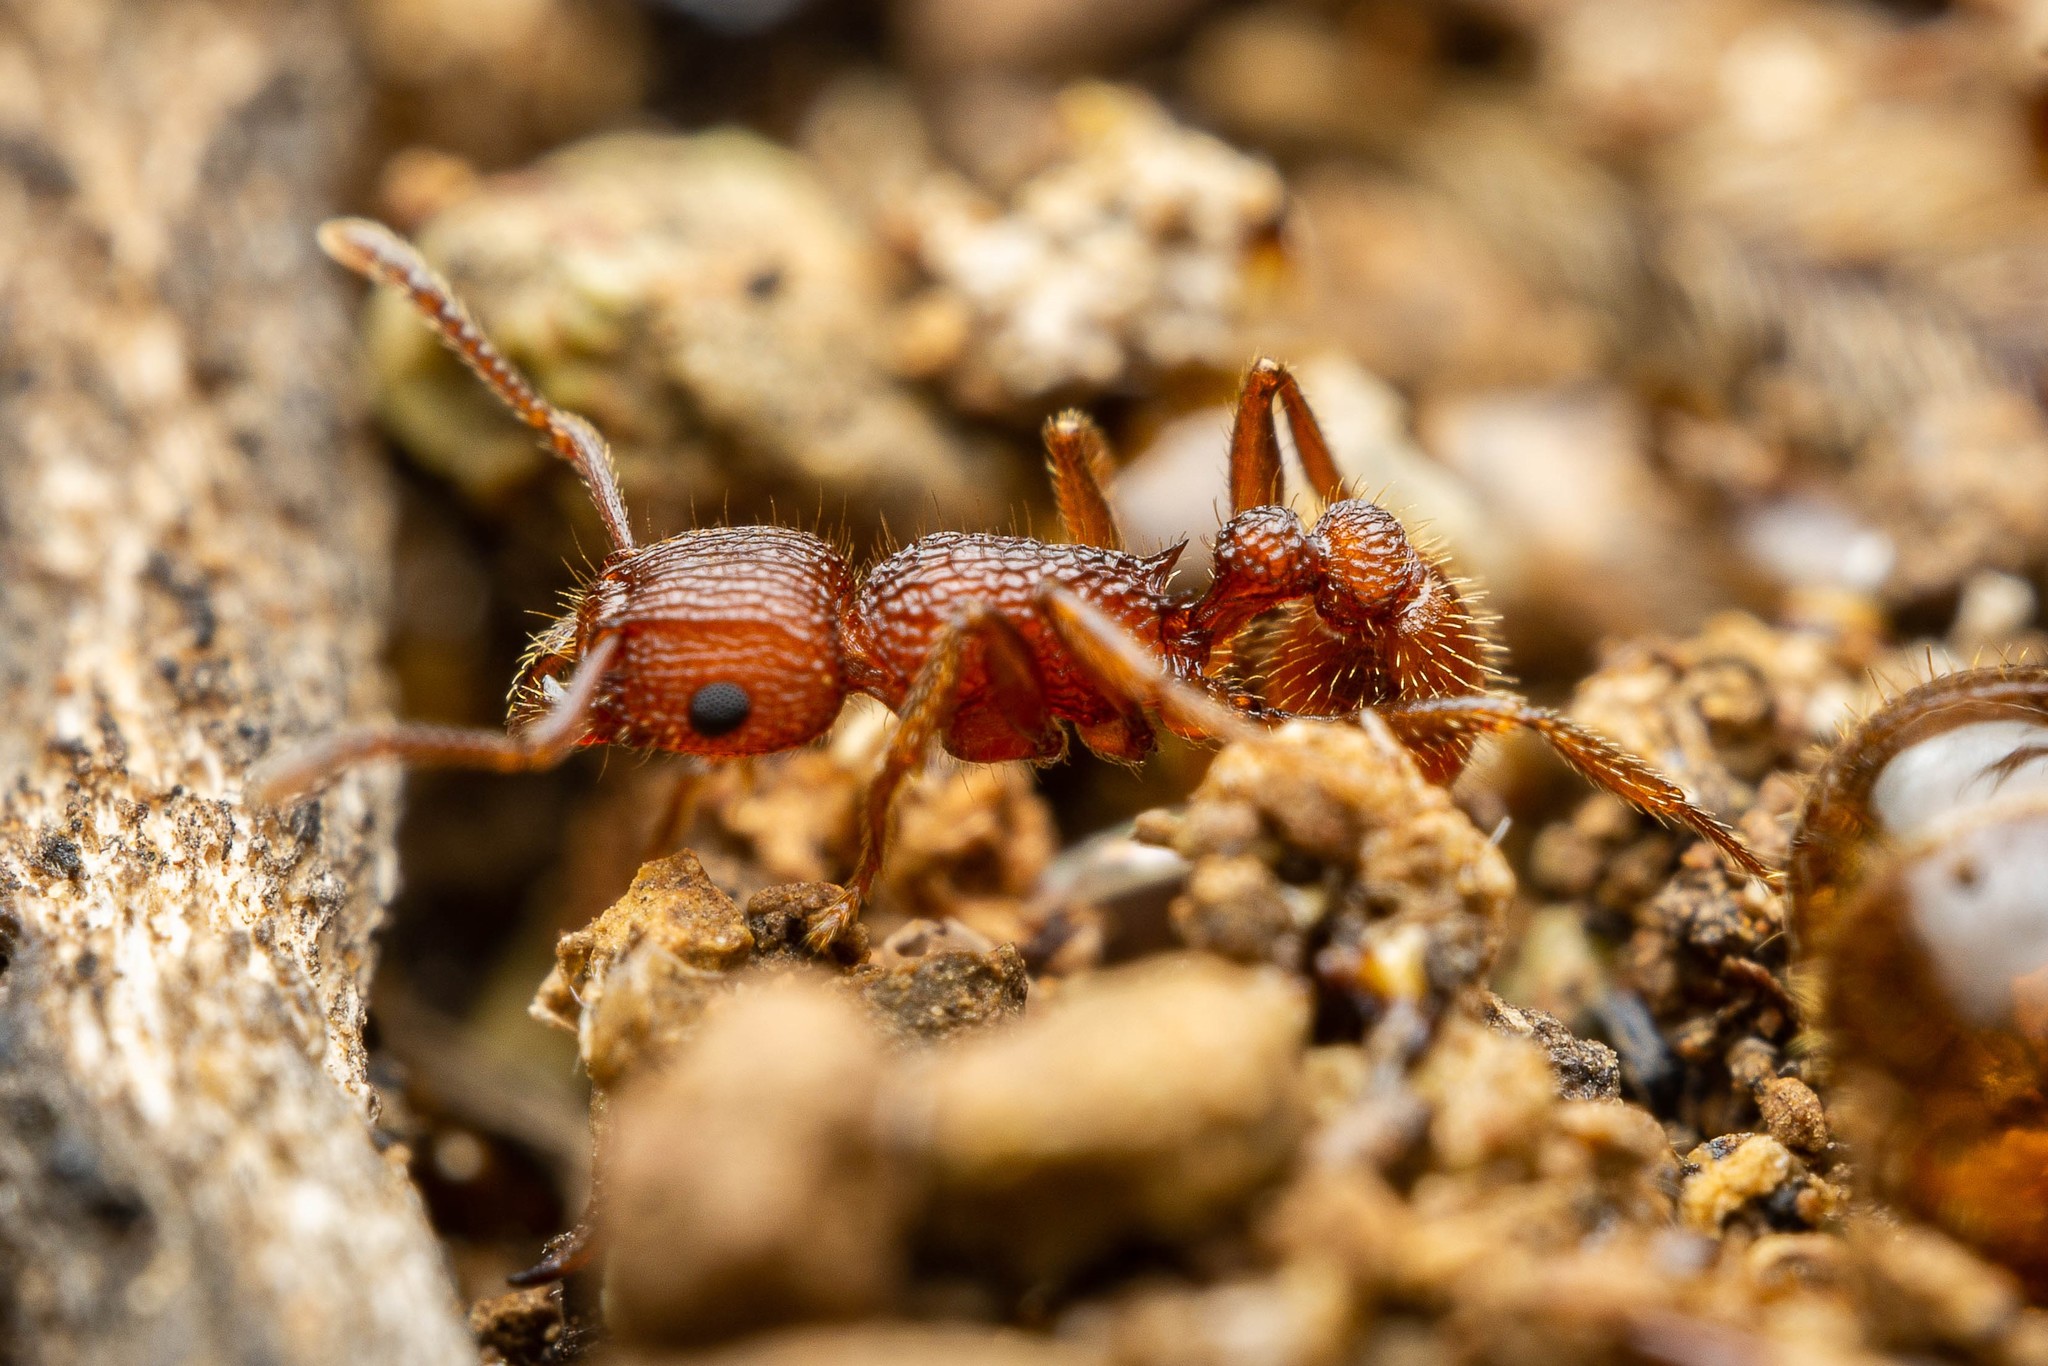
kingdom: Animalia
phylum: Arthropoda
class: Insecta
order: Hymenoptera
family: Formicidae
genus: Tetramorium
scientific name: Tetramorium hispidum
